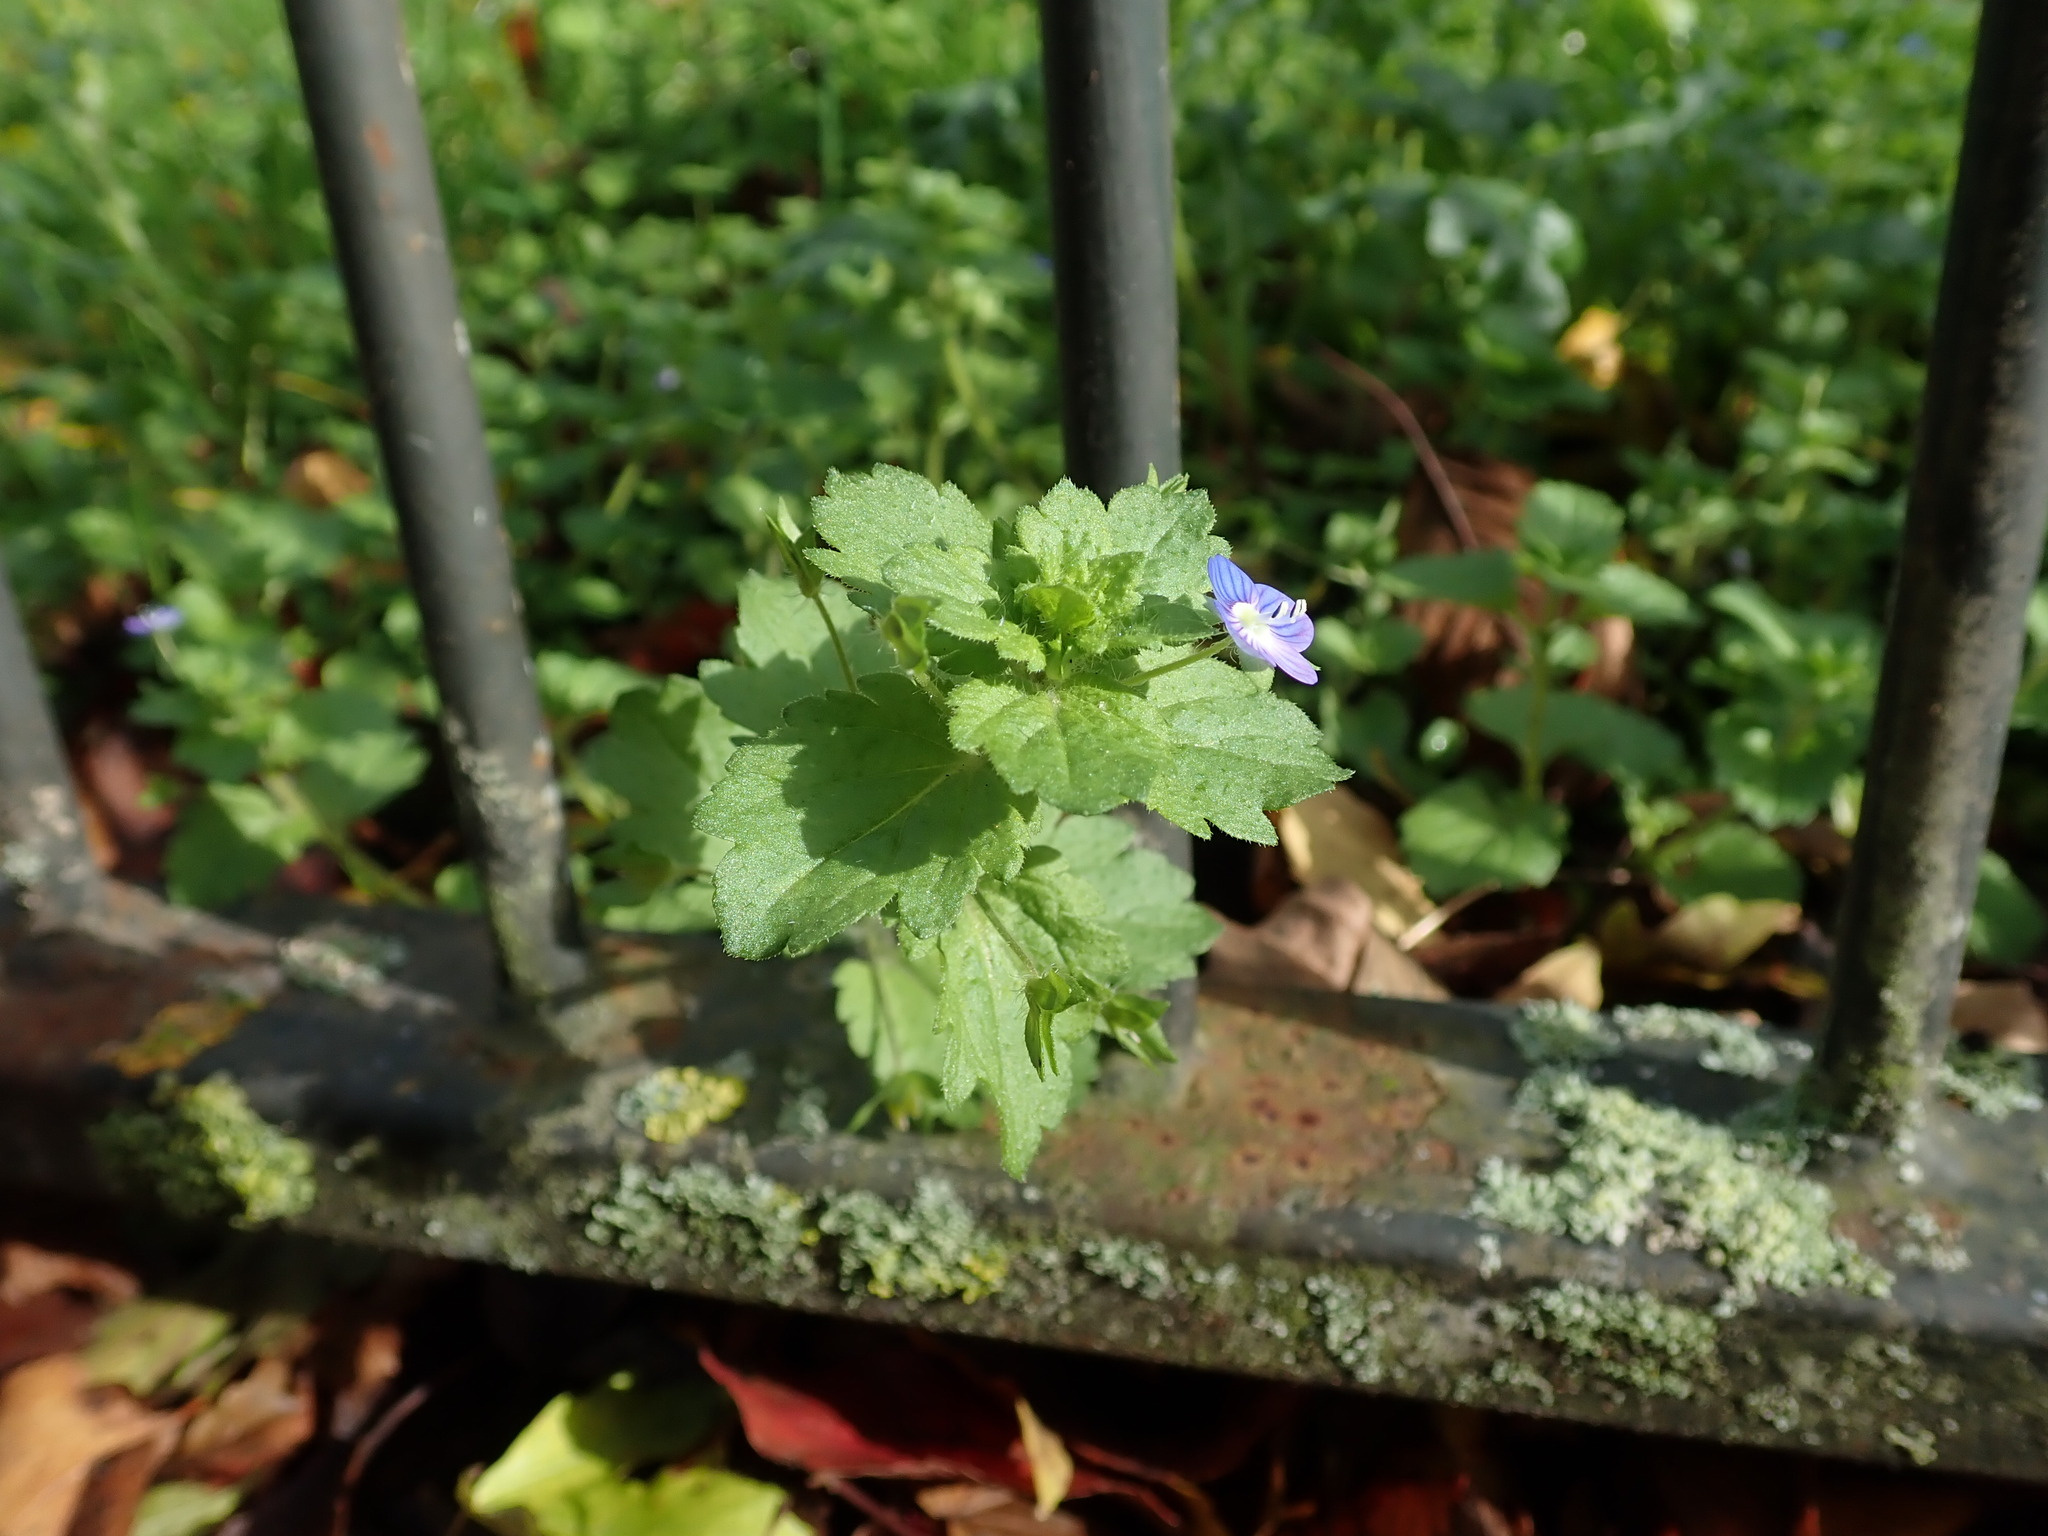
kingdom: Plantae
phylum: Tracheophyta
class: Magnoliopsida
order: Lamiales
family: Plantaginaceae
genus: Veronica
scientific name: Veronica persica
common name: Common field-speedwell
